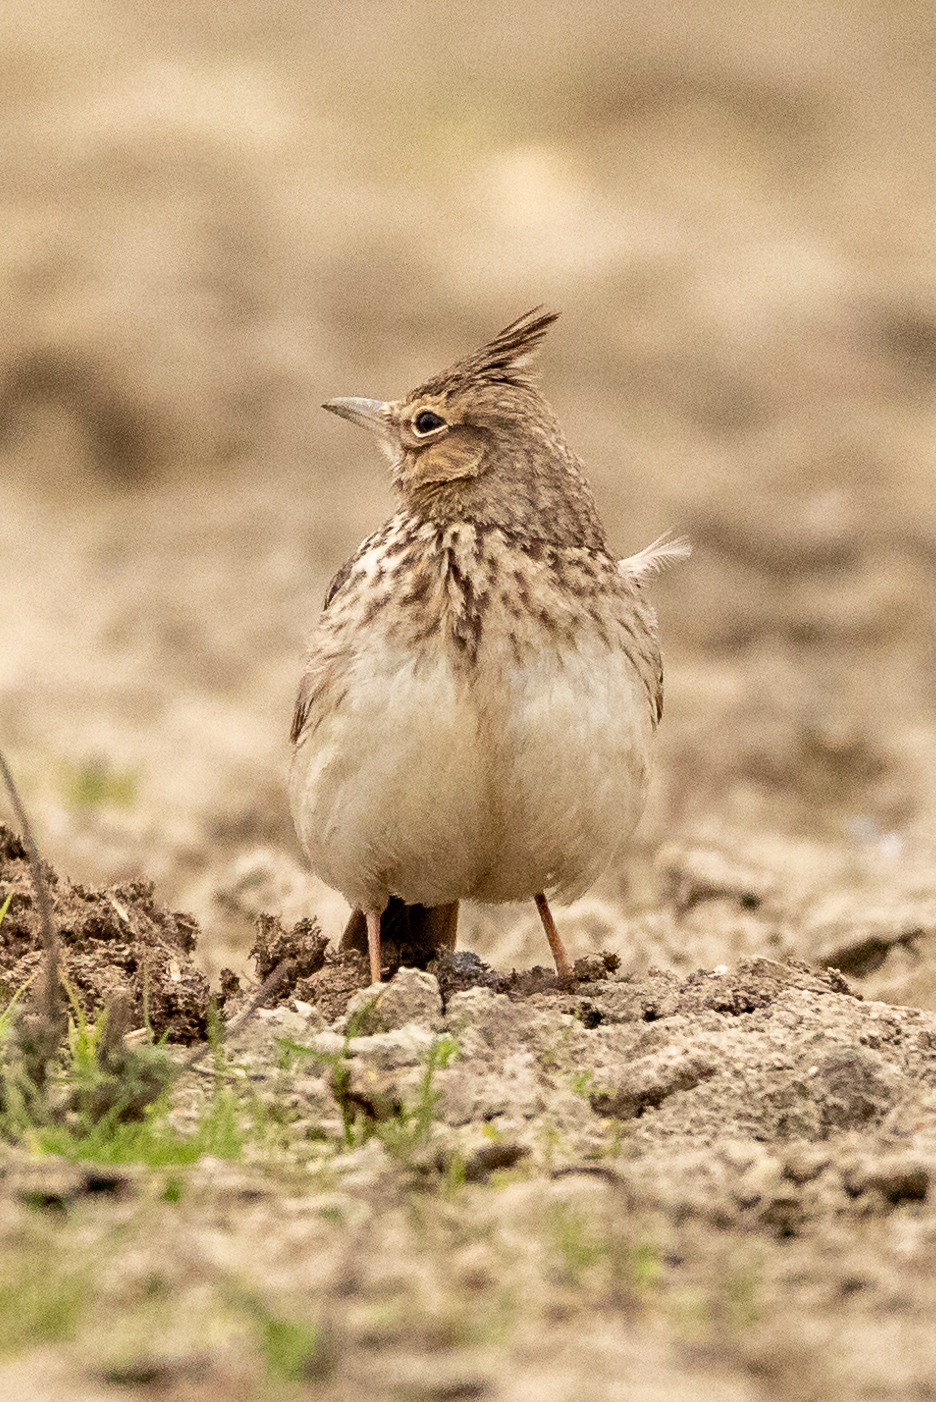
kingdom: Animalia
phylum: Chordata
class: Aves
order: Passeriformes
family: Alaudidae
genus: Galerida
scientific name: Galerida cristata
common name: Crested lark
